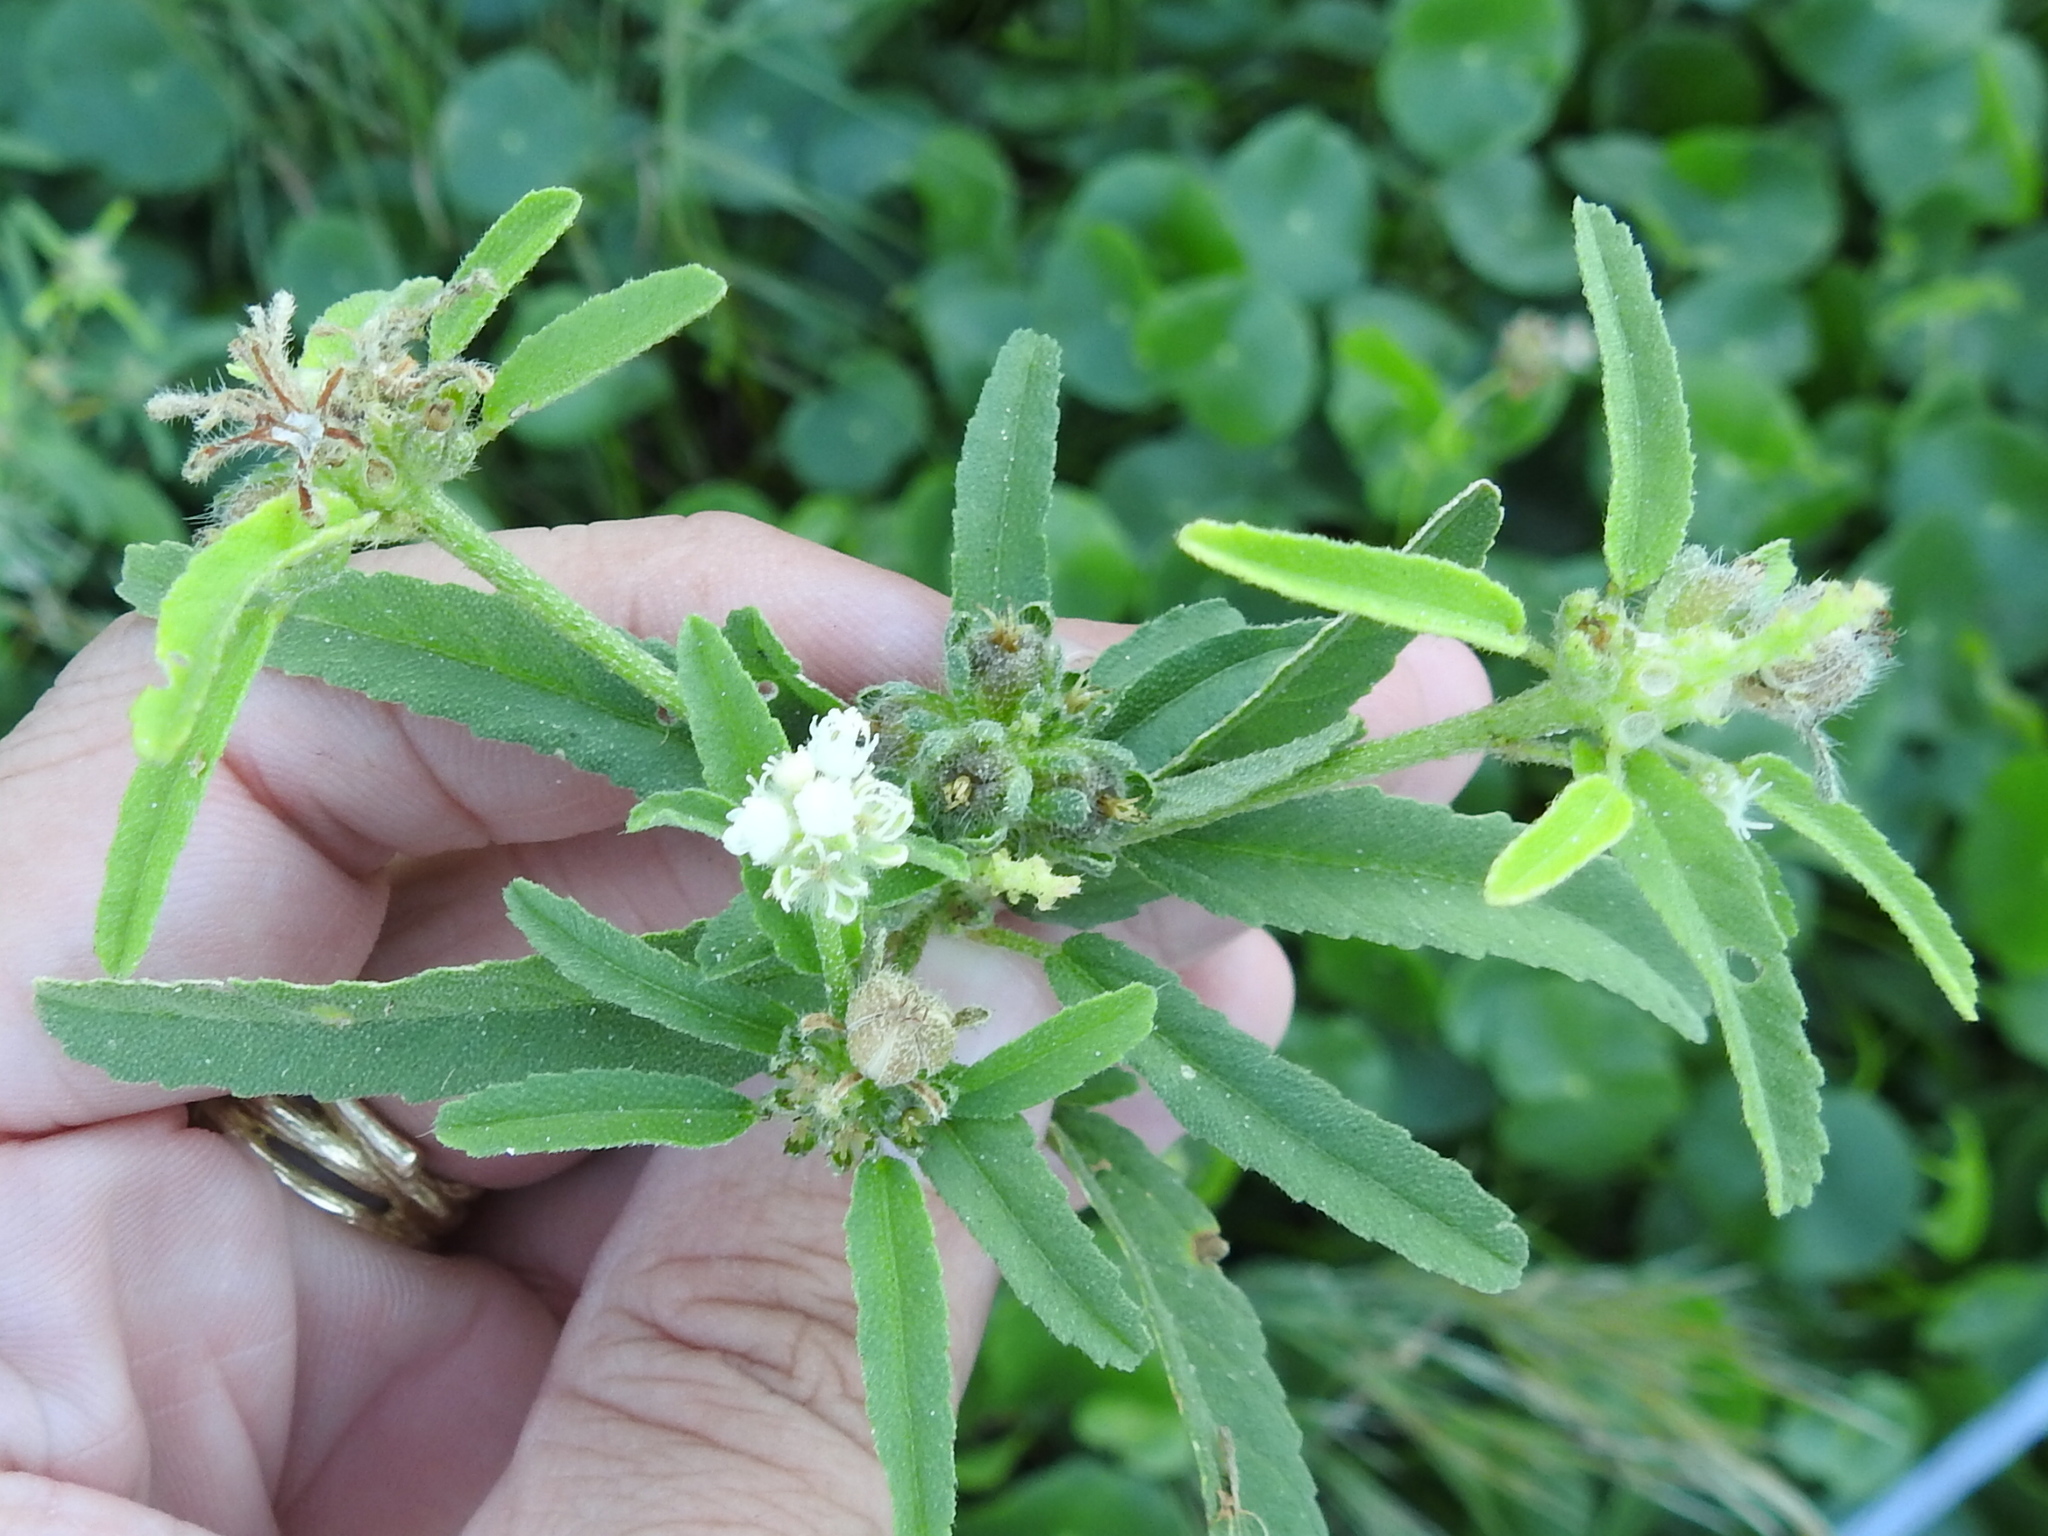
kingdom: Plantae
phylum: Tracheophyta
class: Magnoliopsida
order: Malpighiales
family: Euphorbiaceae
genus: Croton
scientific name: Croton glandulosus
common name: Tropic croton
